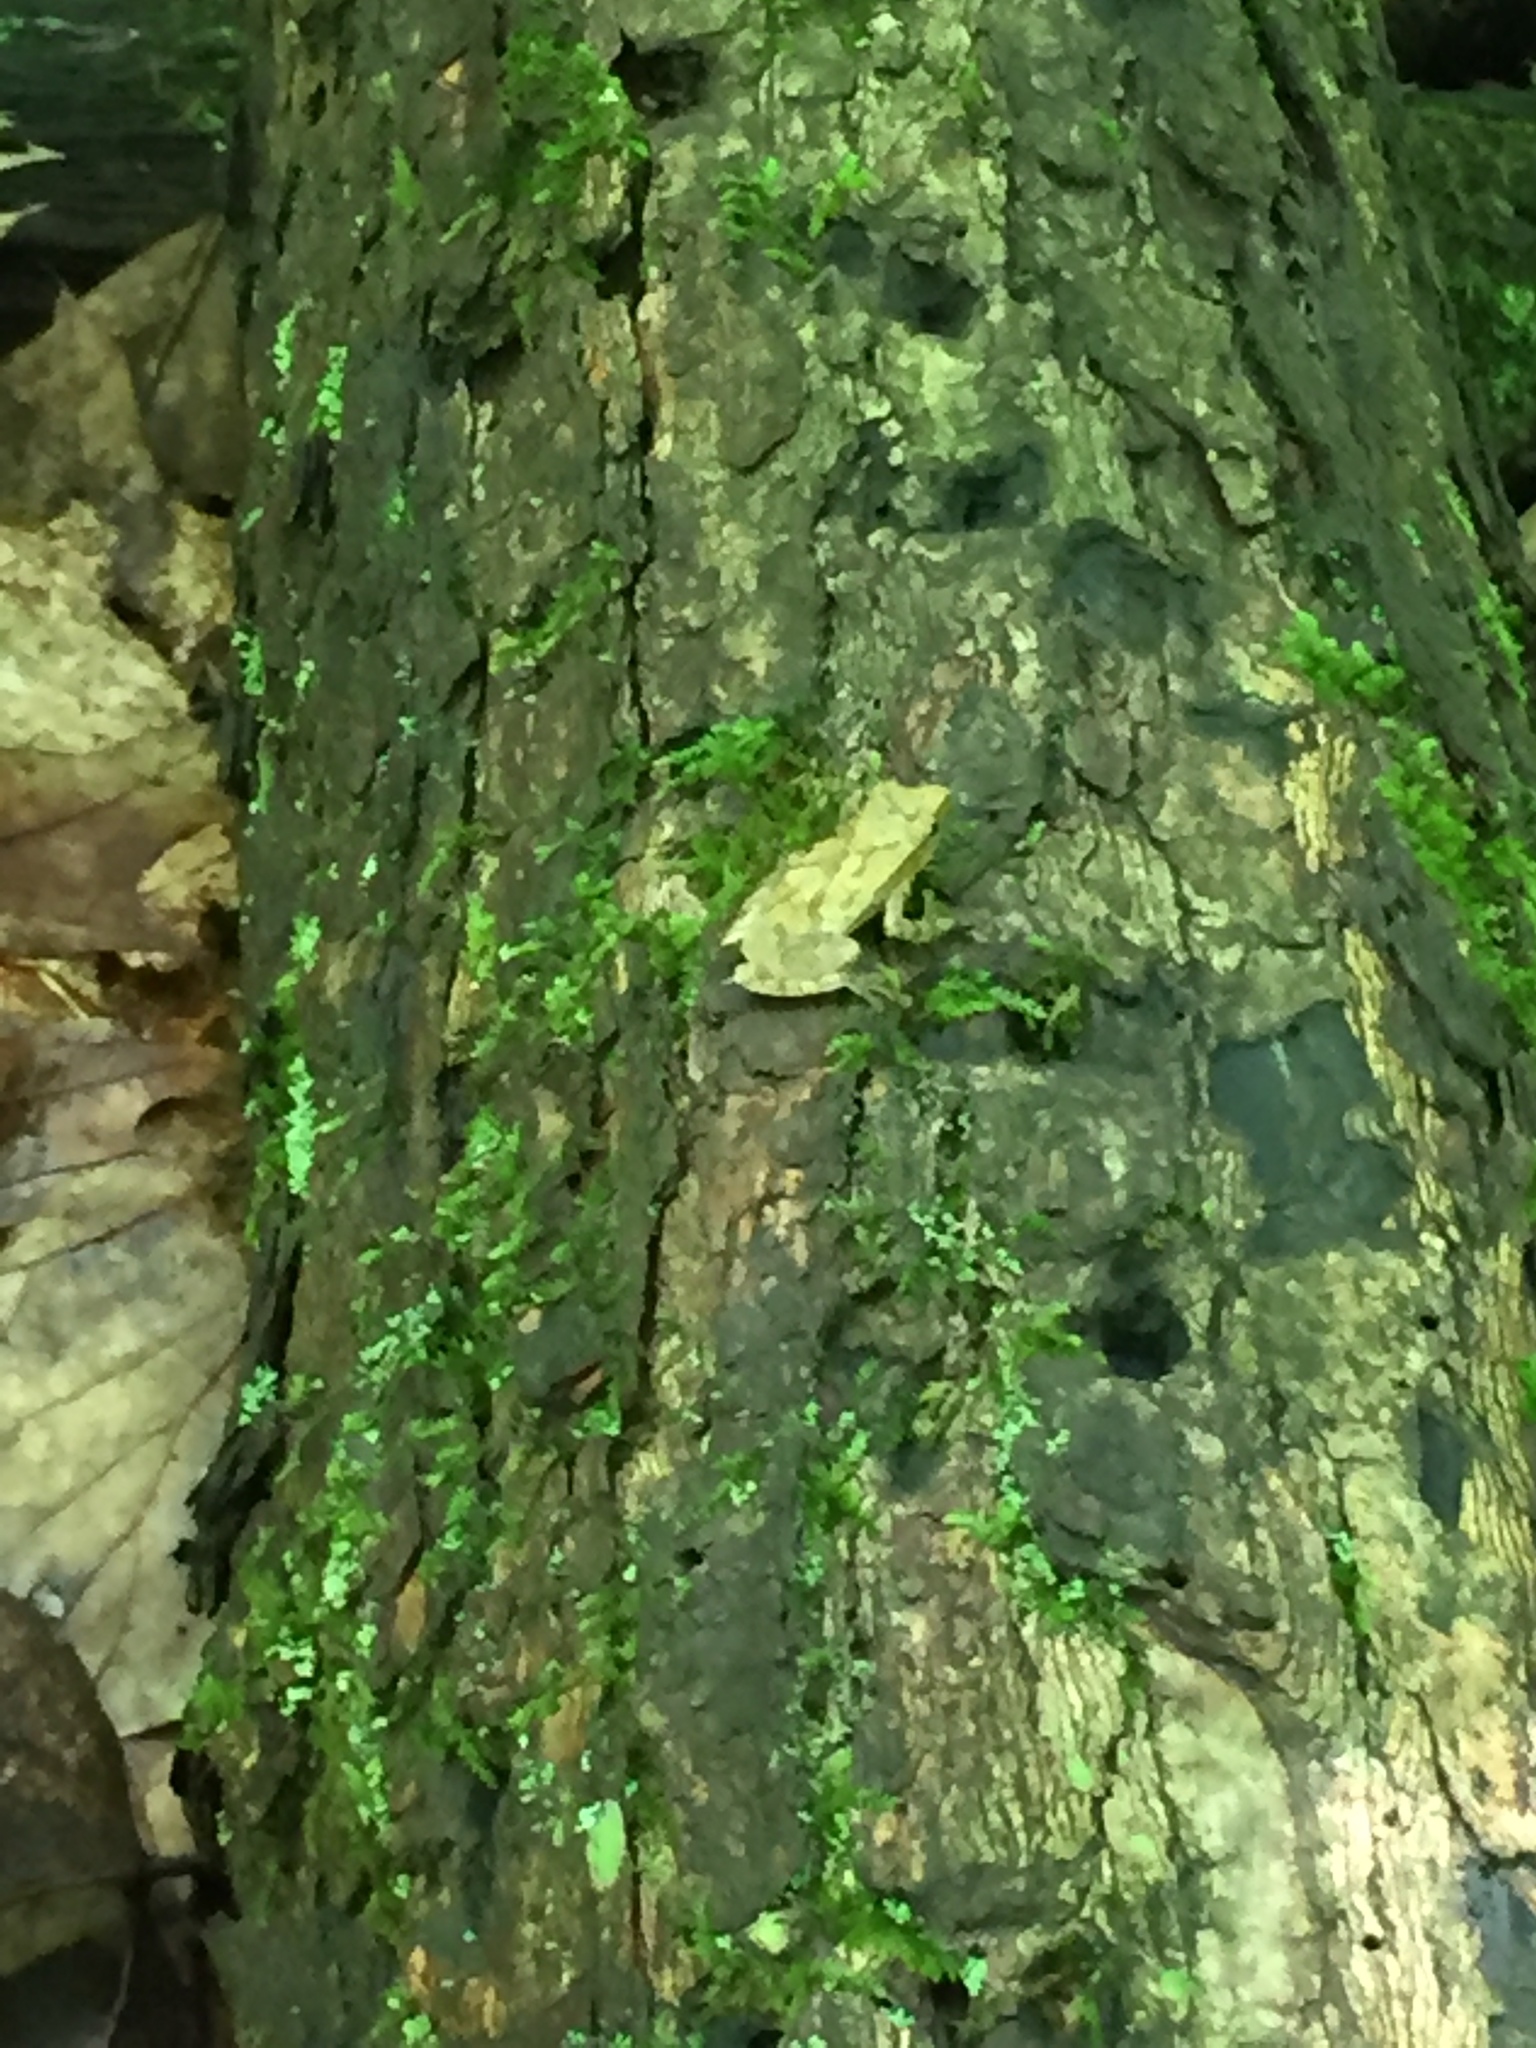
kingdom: Animalia
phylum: Chordata
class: Amphibia
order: Anura
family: Hylidae
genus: Pseudacris
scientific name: Pseudacris crucifer
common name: Spring peeper
